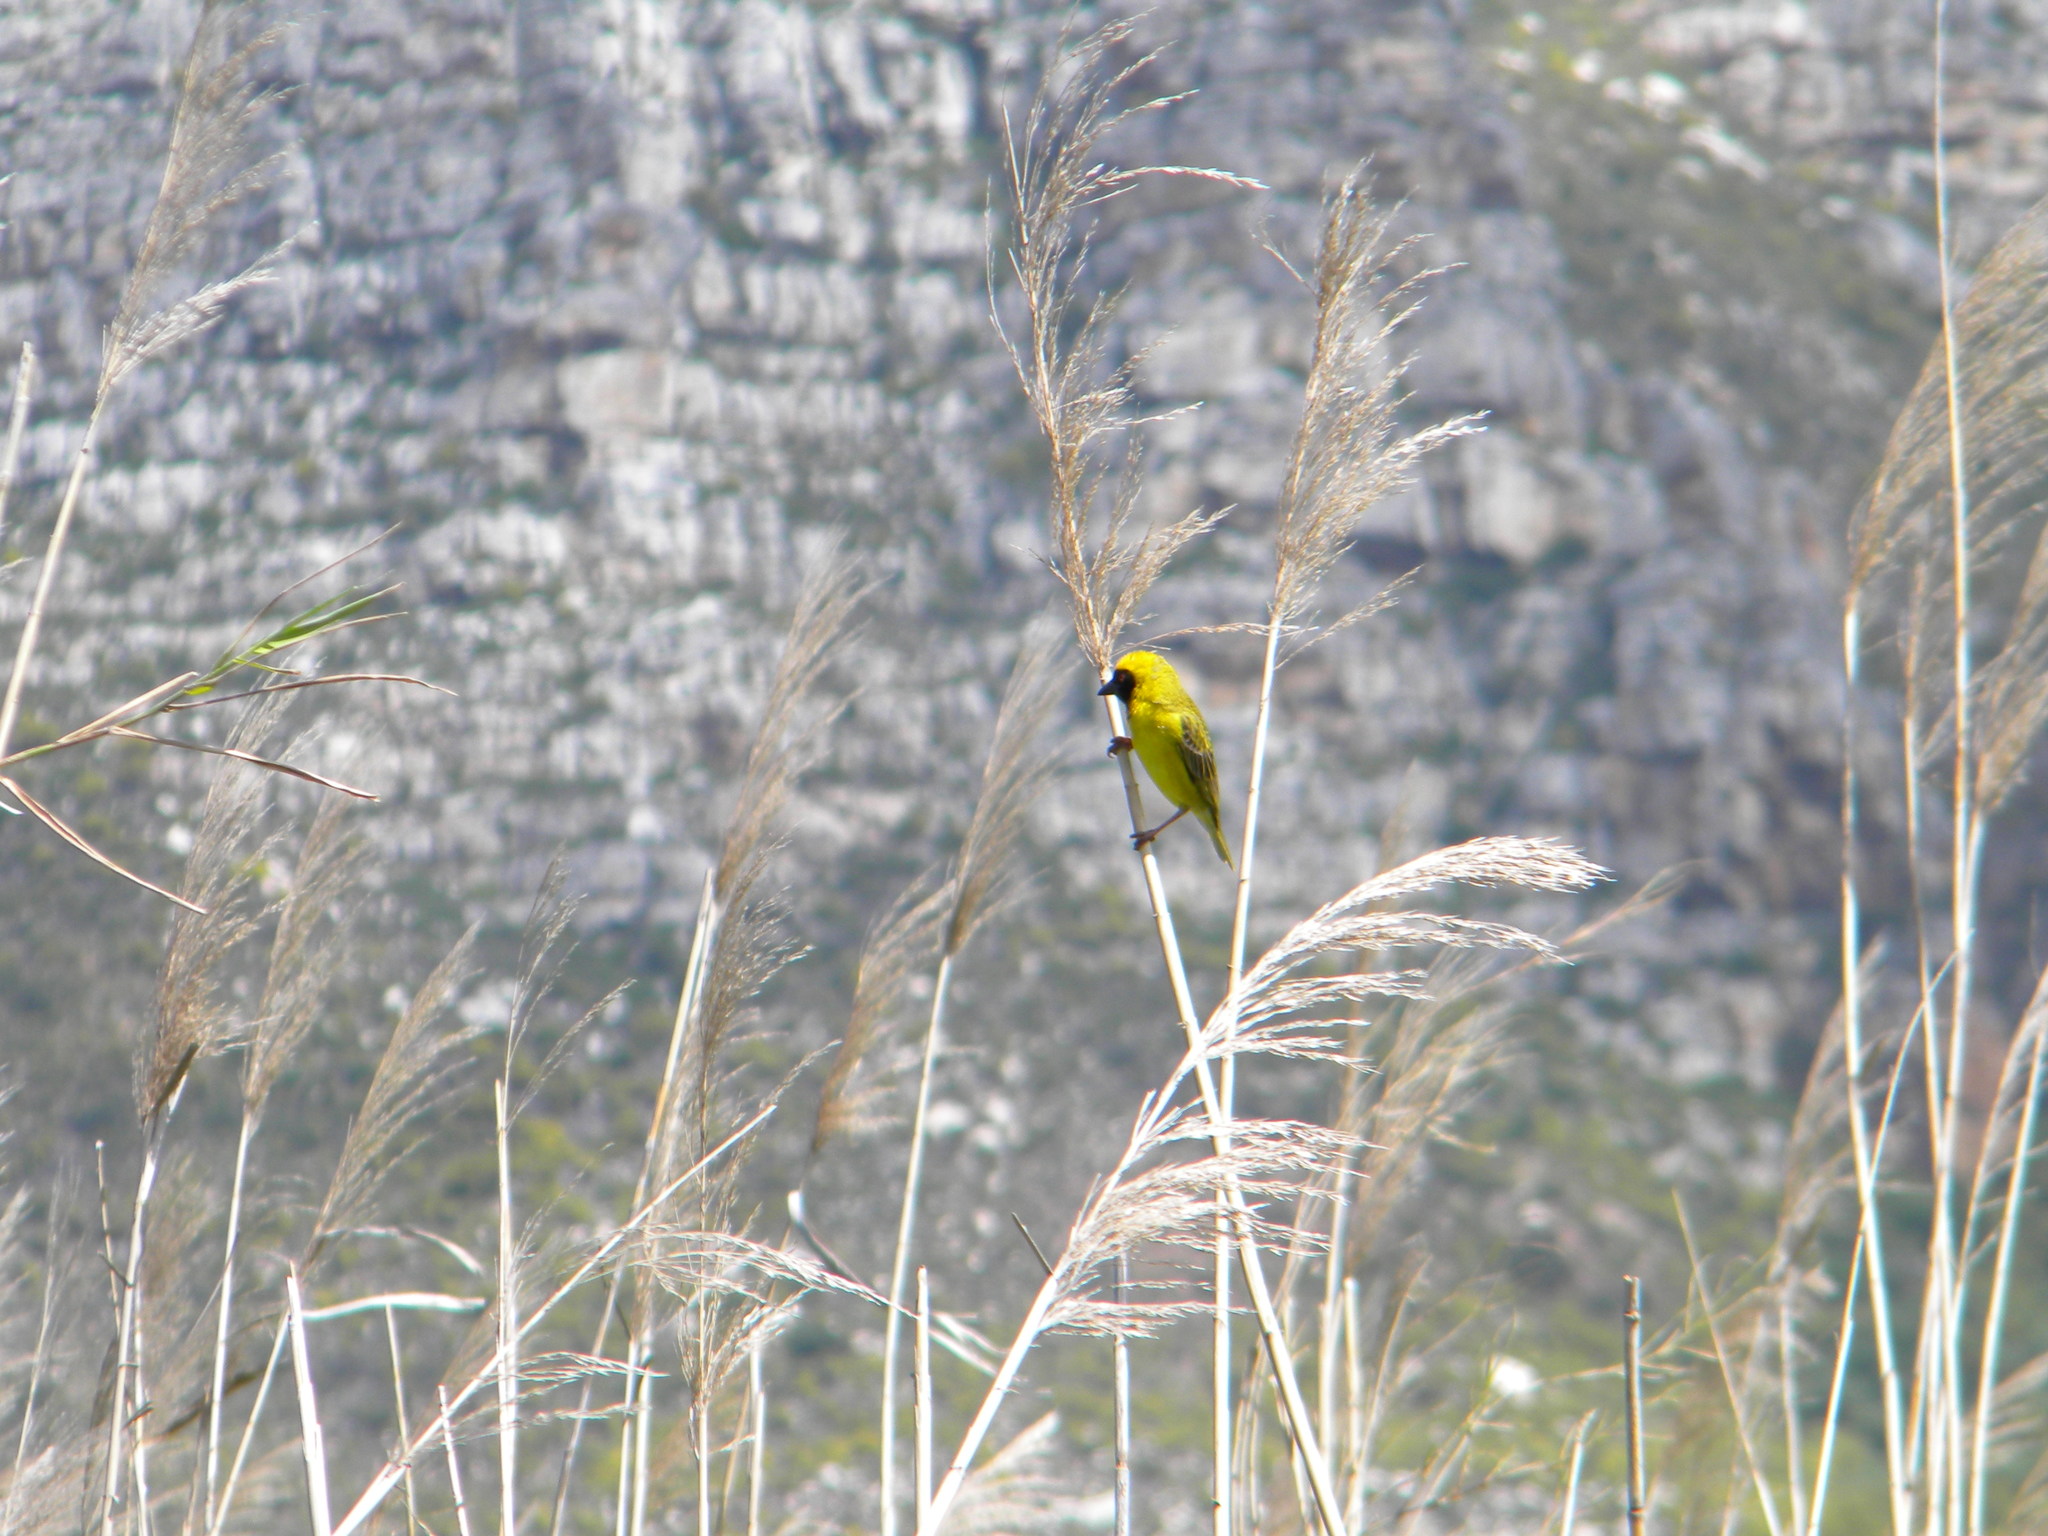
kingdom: Animalia
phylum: Chordata
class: Aves
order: Passeriformes
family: Ploceidae
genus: Ploceus
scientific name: Ploceus velatus
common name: Southern masked weaver
